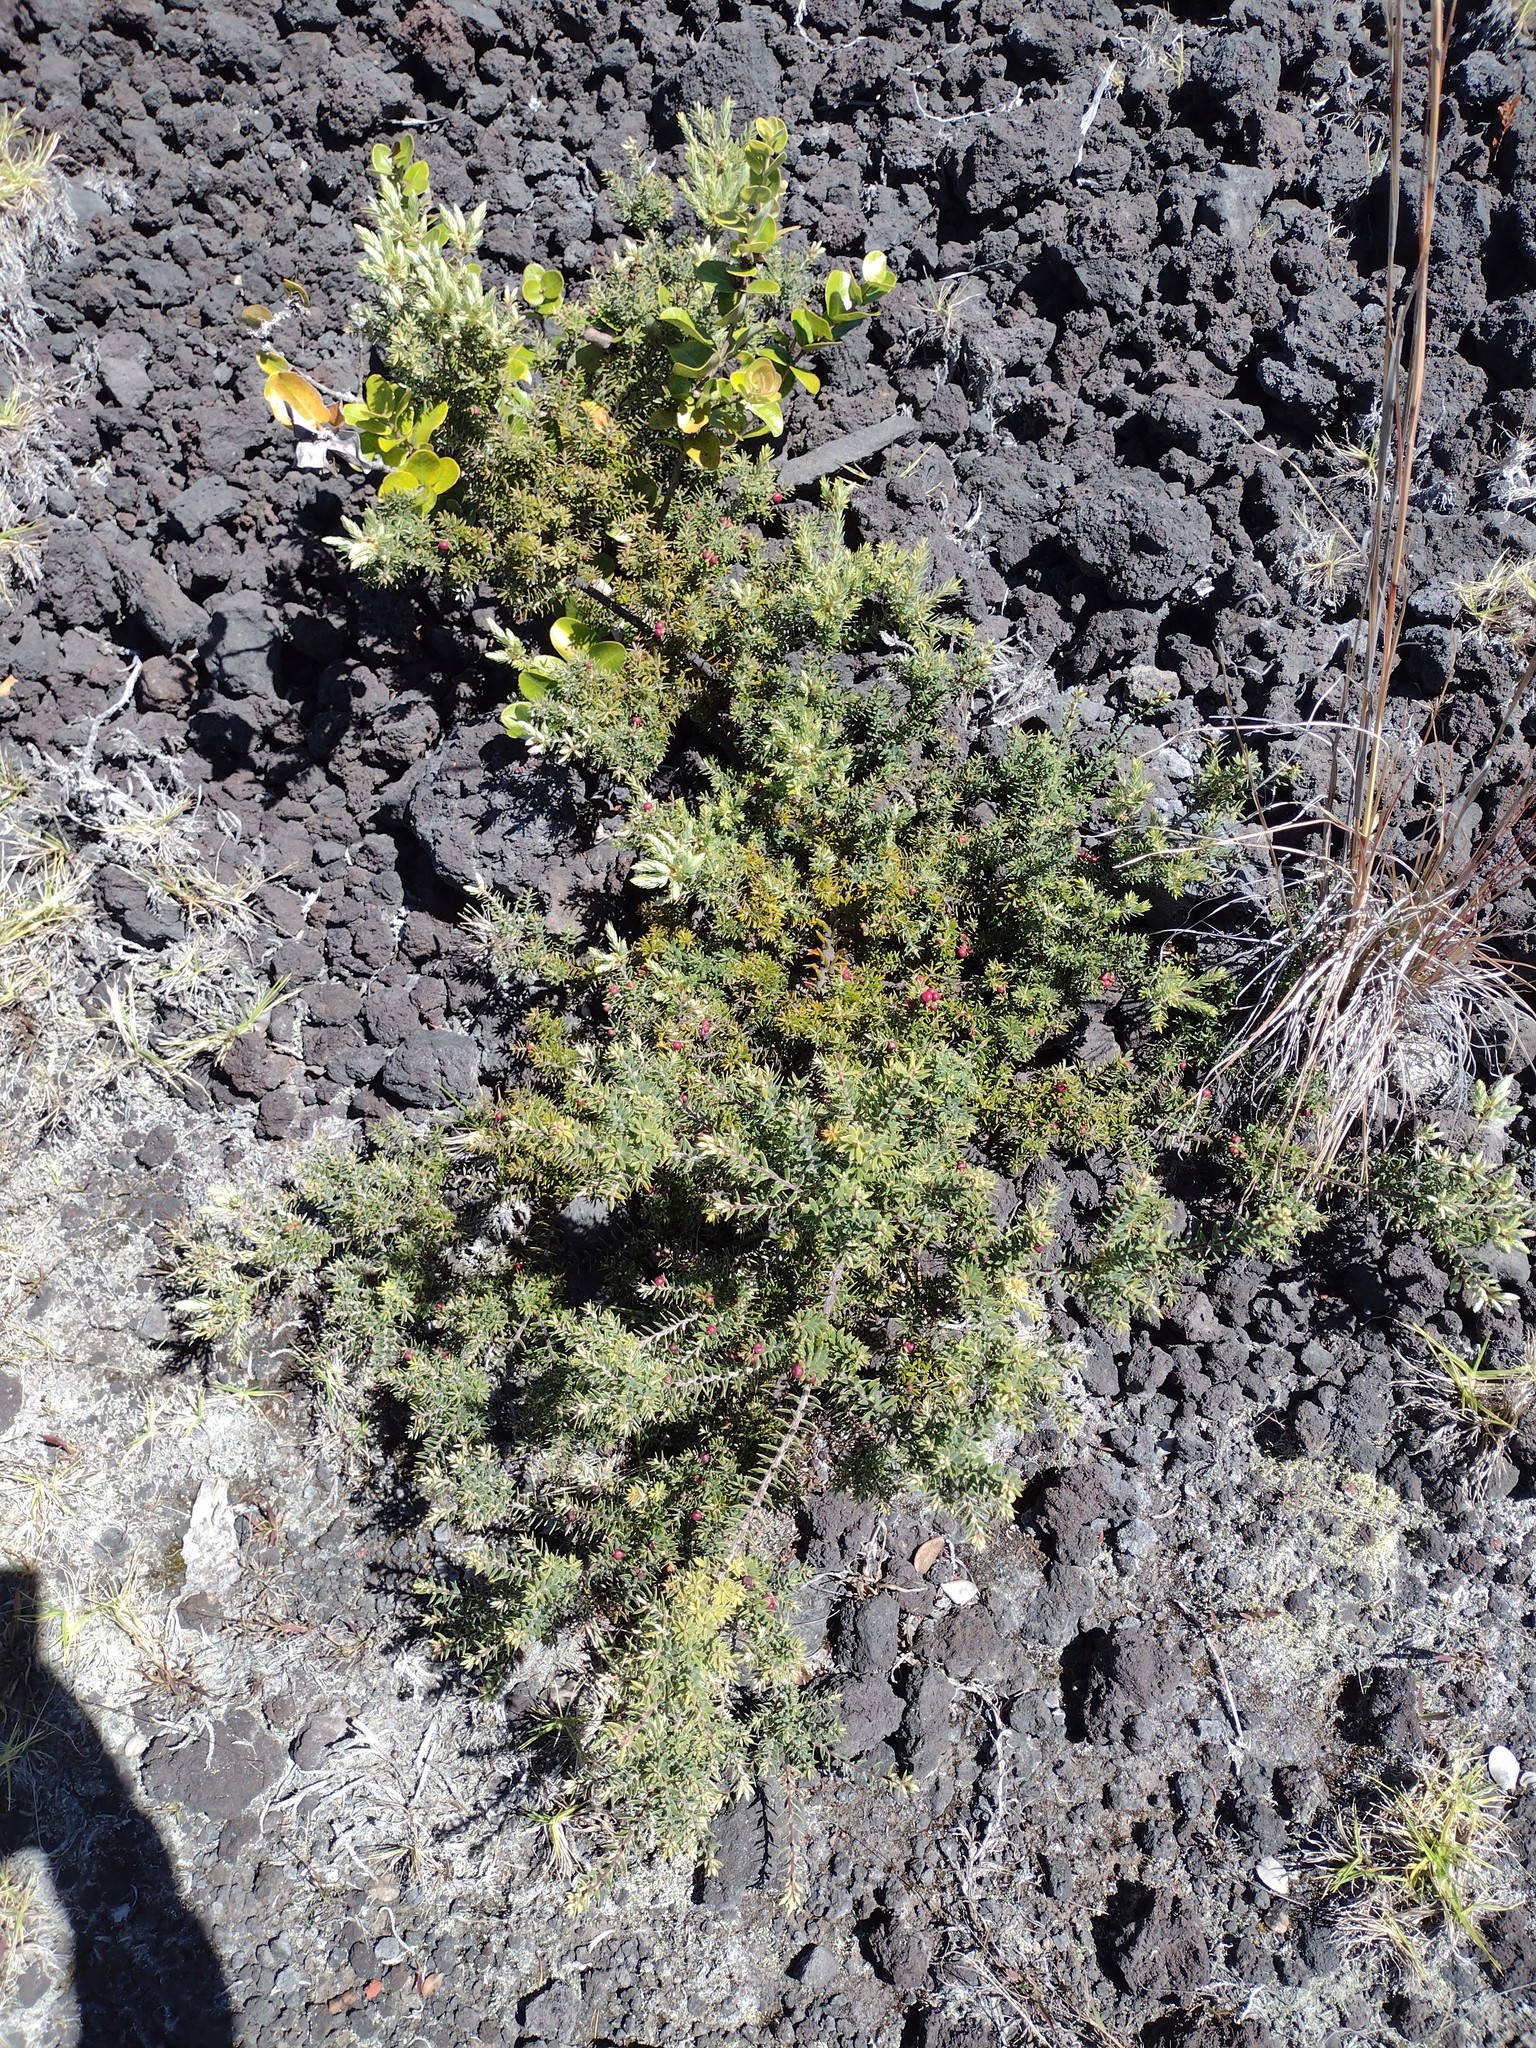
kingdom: Plantae
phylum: Tracheophyta
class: Magnoliopsida
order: Ericales
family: Ericaceae
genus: Leptecophylla
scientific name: Leptecophylla tameiameiae
